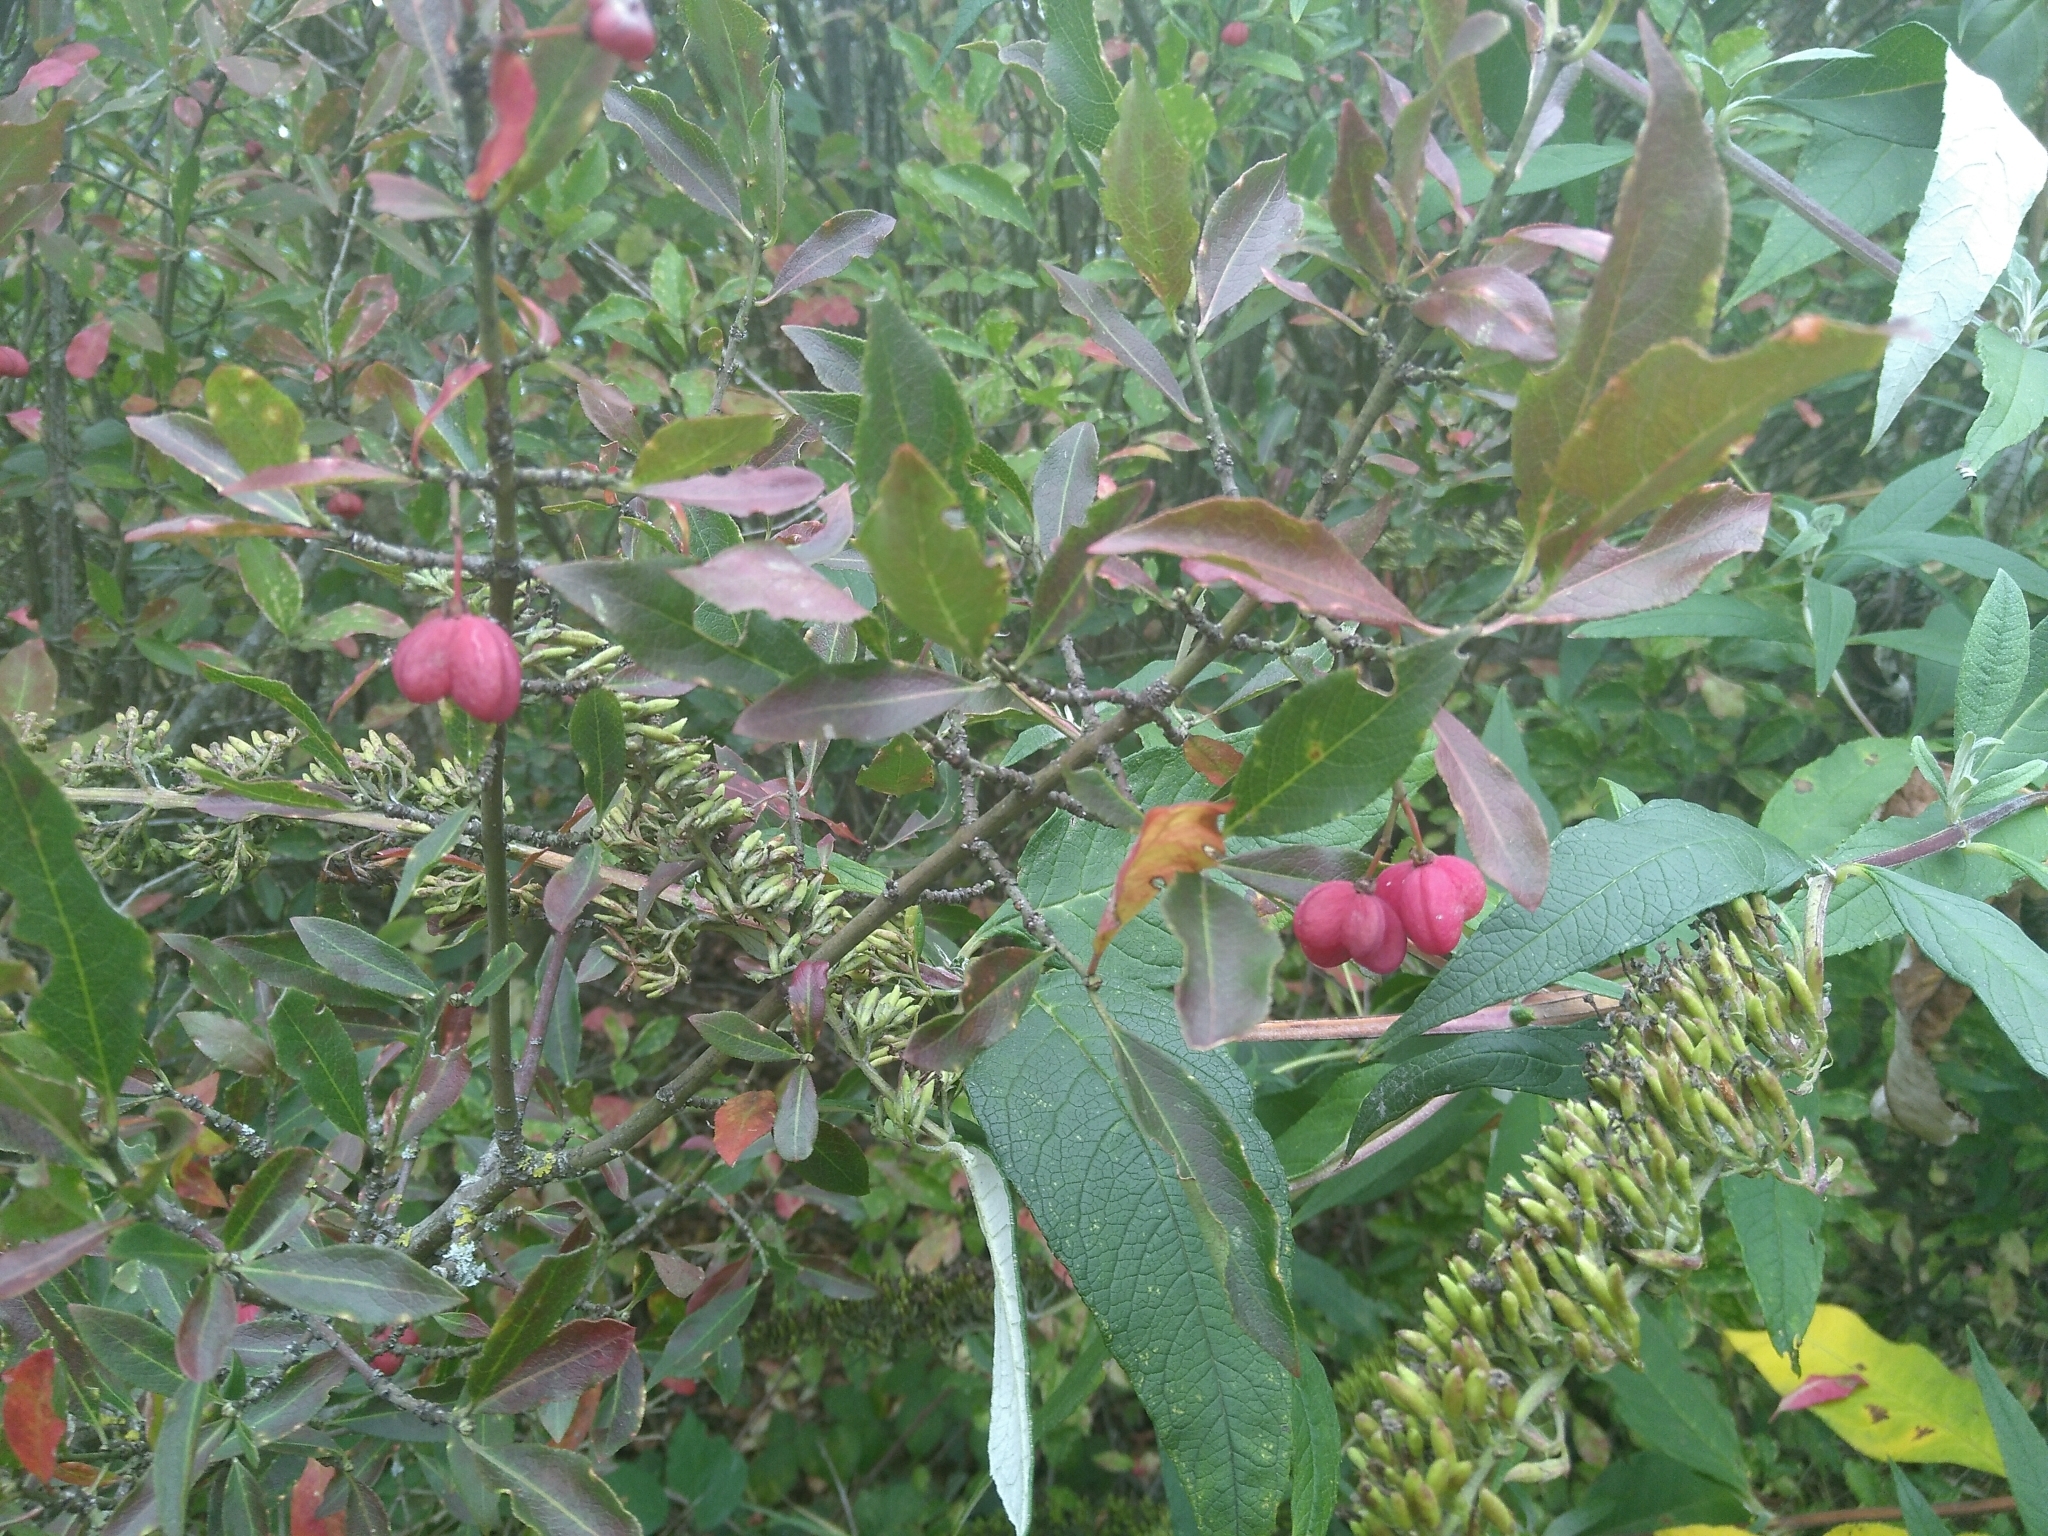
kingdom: Plantae
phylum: Tracheophyta
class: Magnoliopsida
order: Celastrales
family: Celastraceae
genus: Euonymus
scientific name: Euonymus europaeus
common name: Spindle
